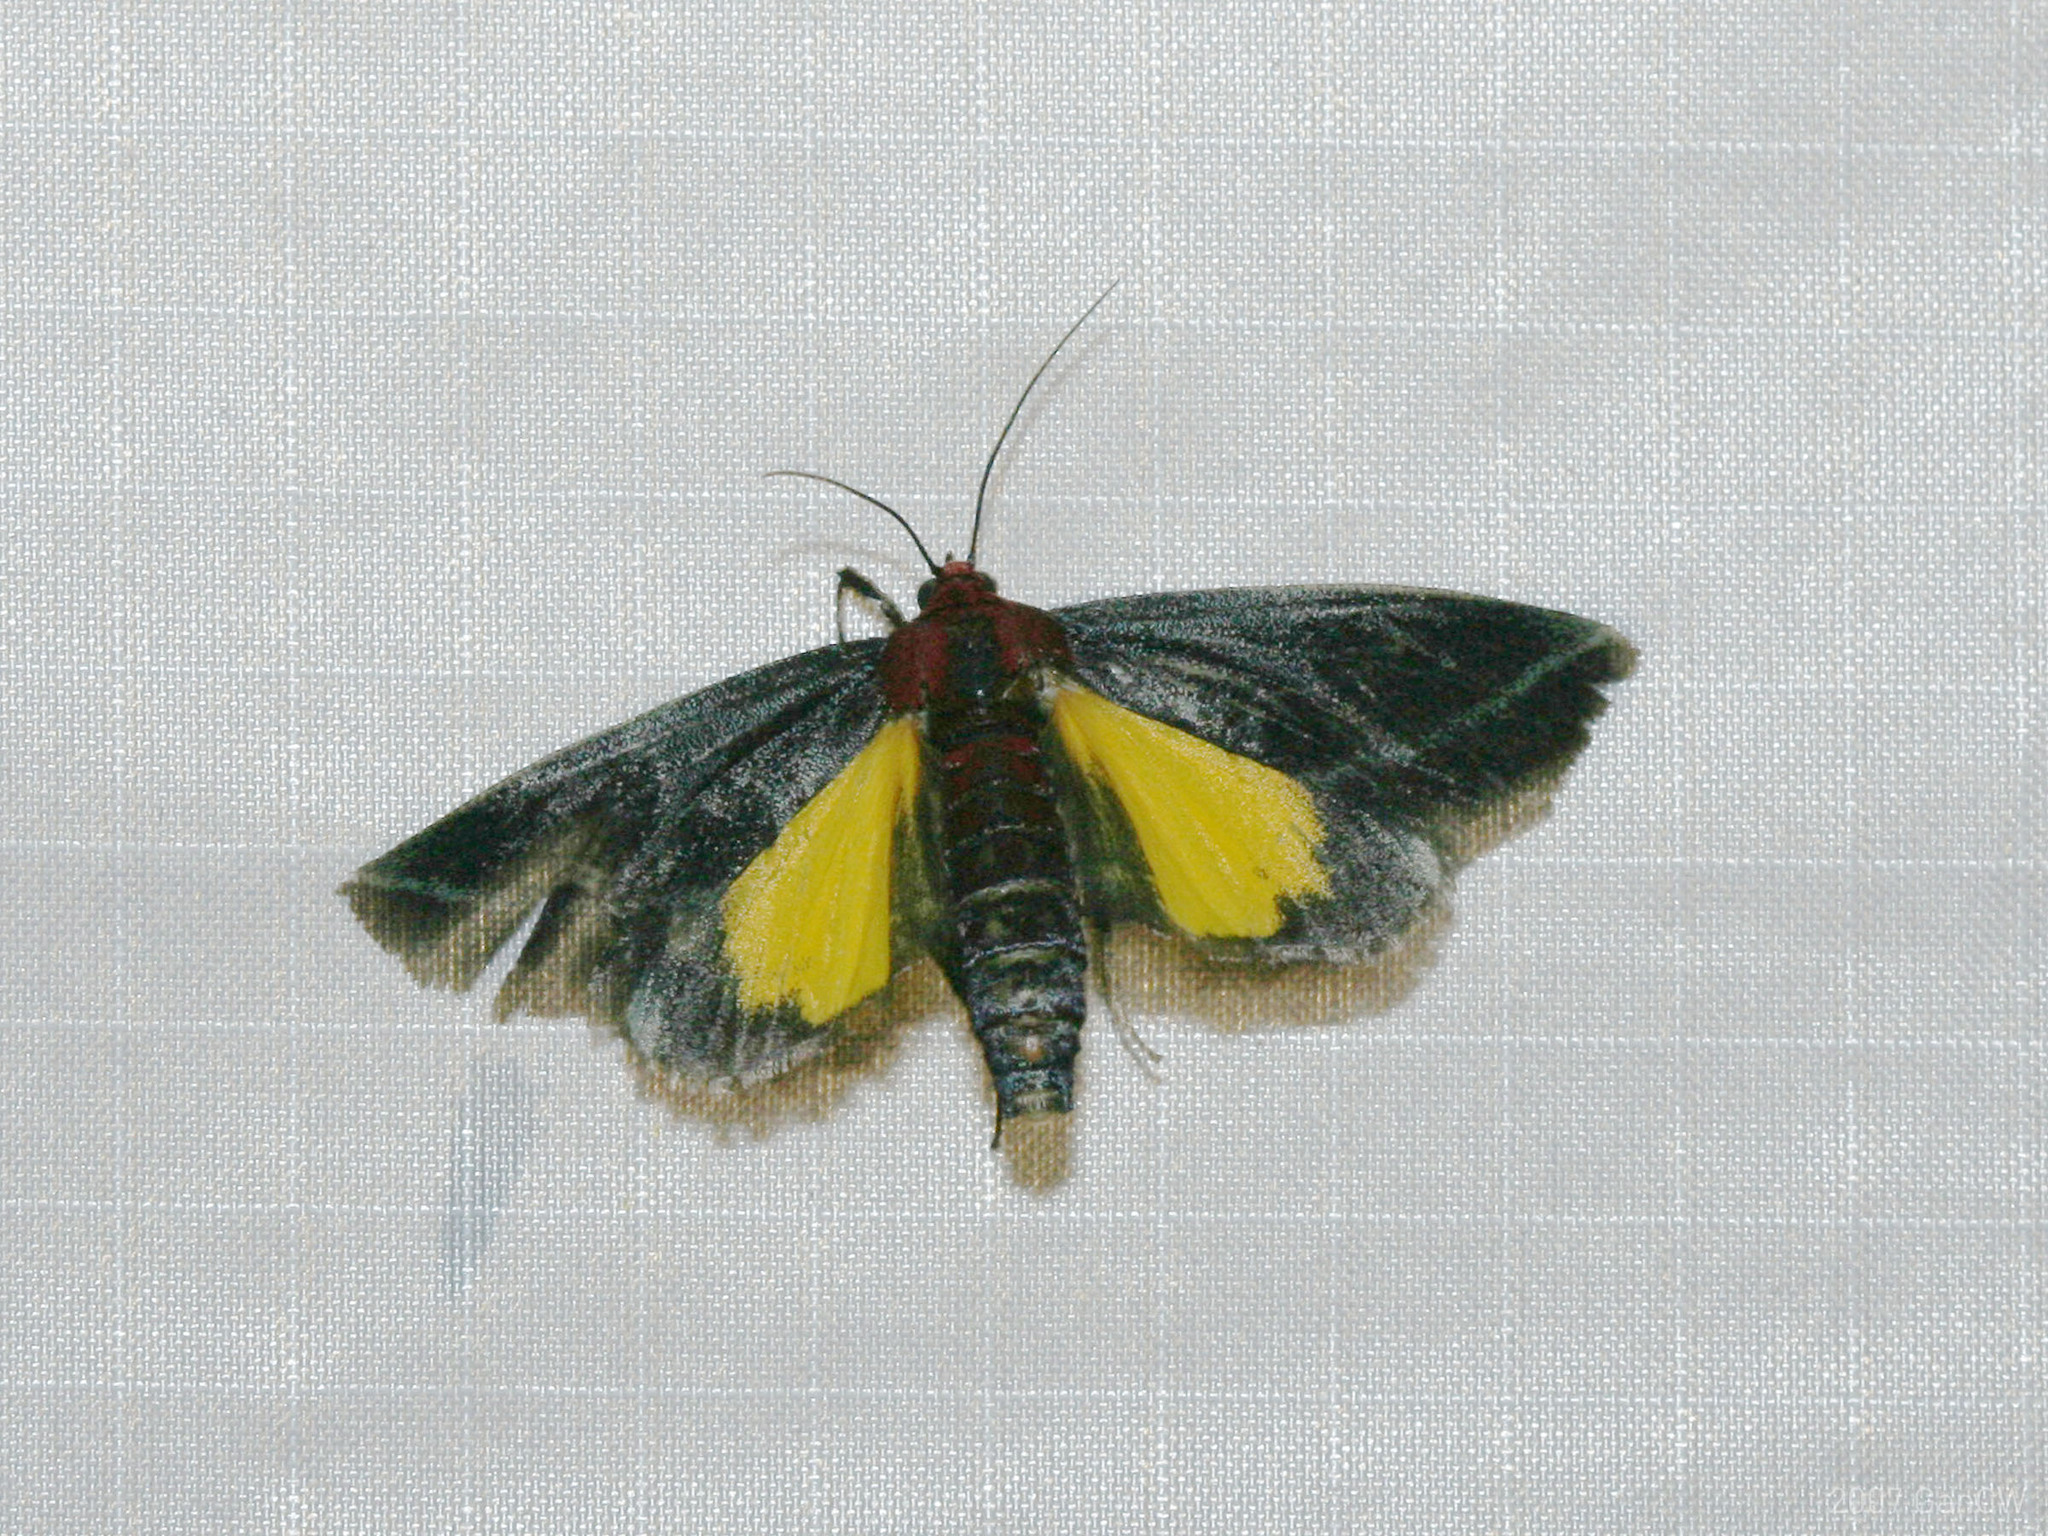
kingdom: Animalia
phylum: Arthropoda
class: Insecta
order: Lepidoptera
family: Pyralidae
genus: Toccolosida
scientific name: Toccolosida rubriceps
